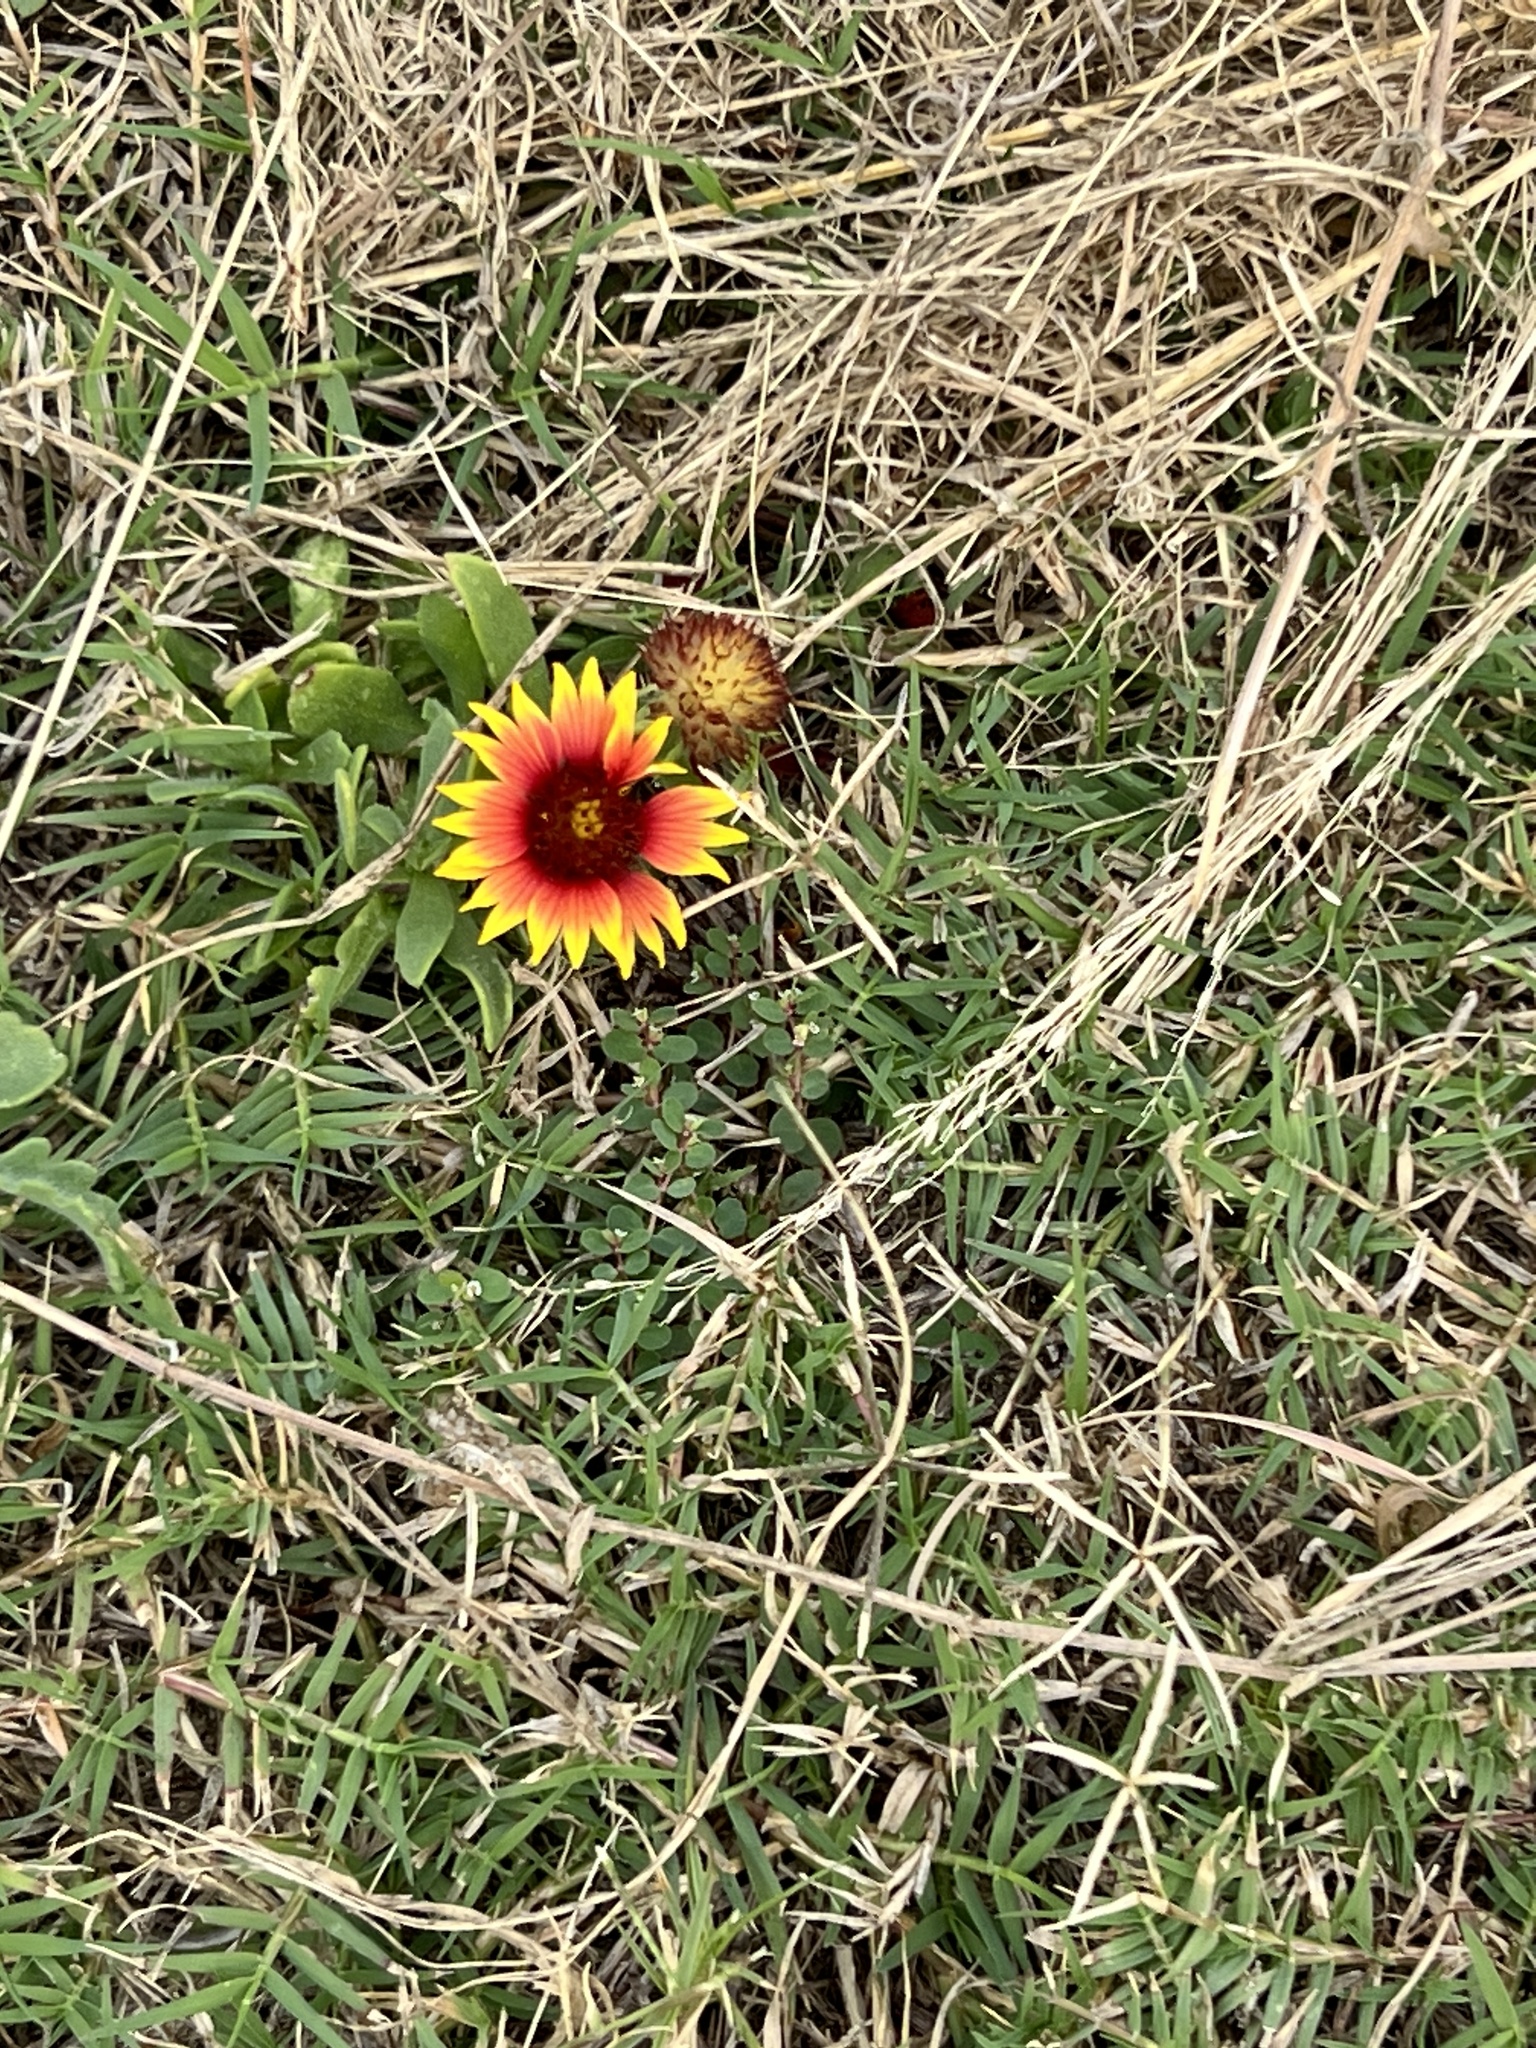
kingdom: Plantae
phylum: Tracheophyta
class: Magnoliopsida
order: Asterales
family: Asteraceae
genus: Gaillardia
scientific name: Gaillardia pulchella
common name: Firewheel
